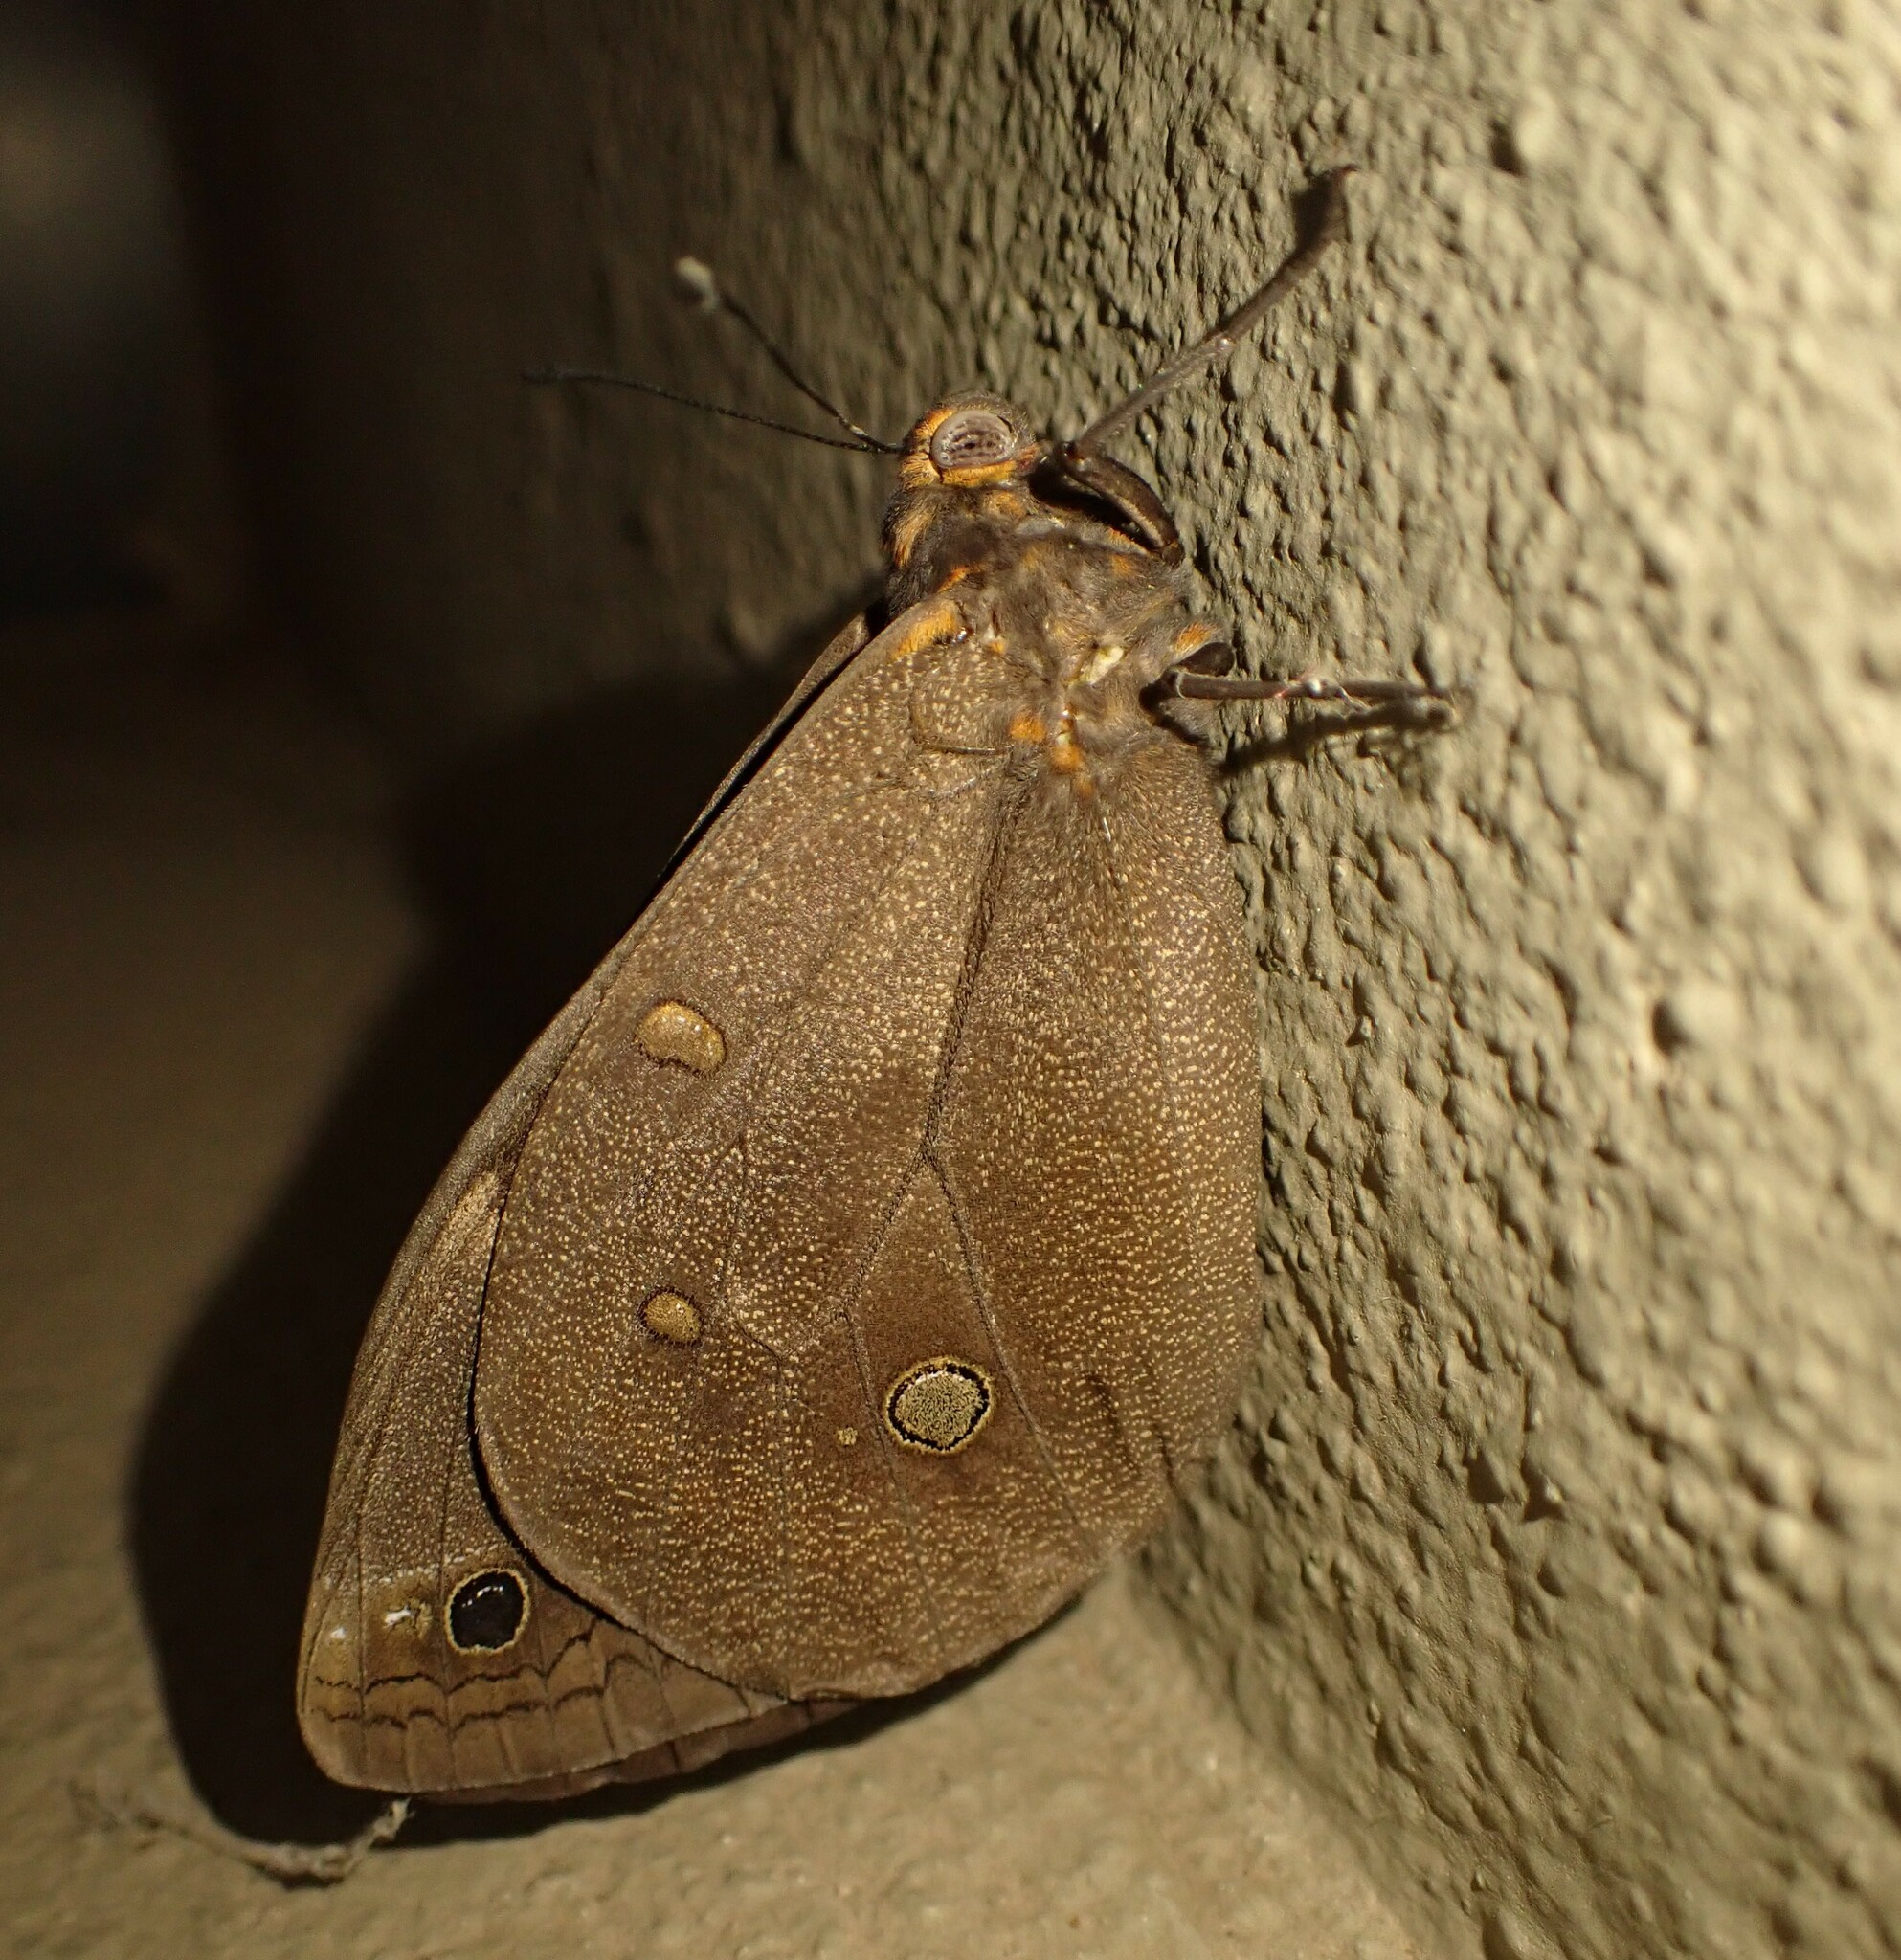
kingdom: Animalia
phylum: Arthropoda
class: Insecta
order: Lepidoptera
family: Nymphalidae
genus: Brassolis
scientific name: Brassolis sophorae
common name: Coconut caterpillar
